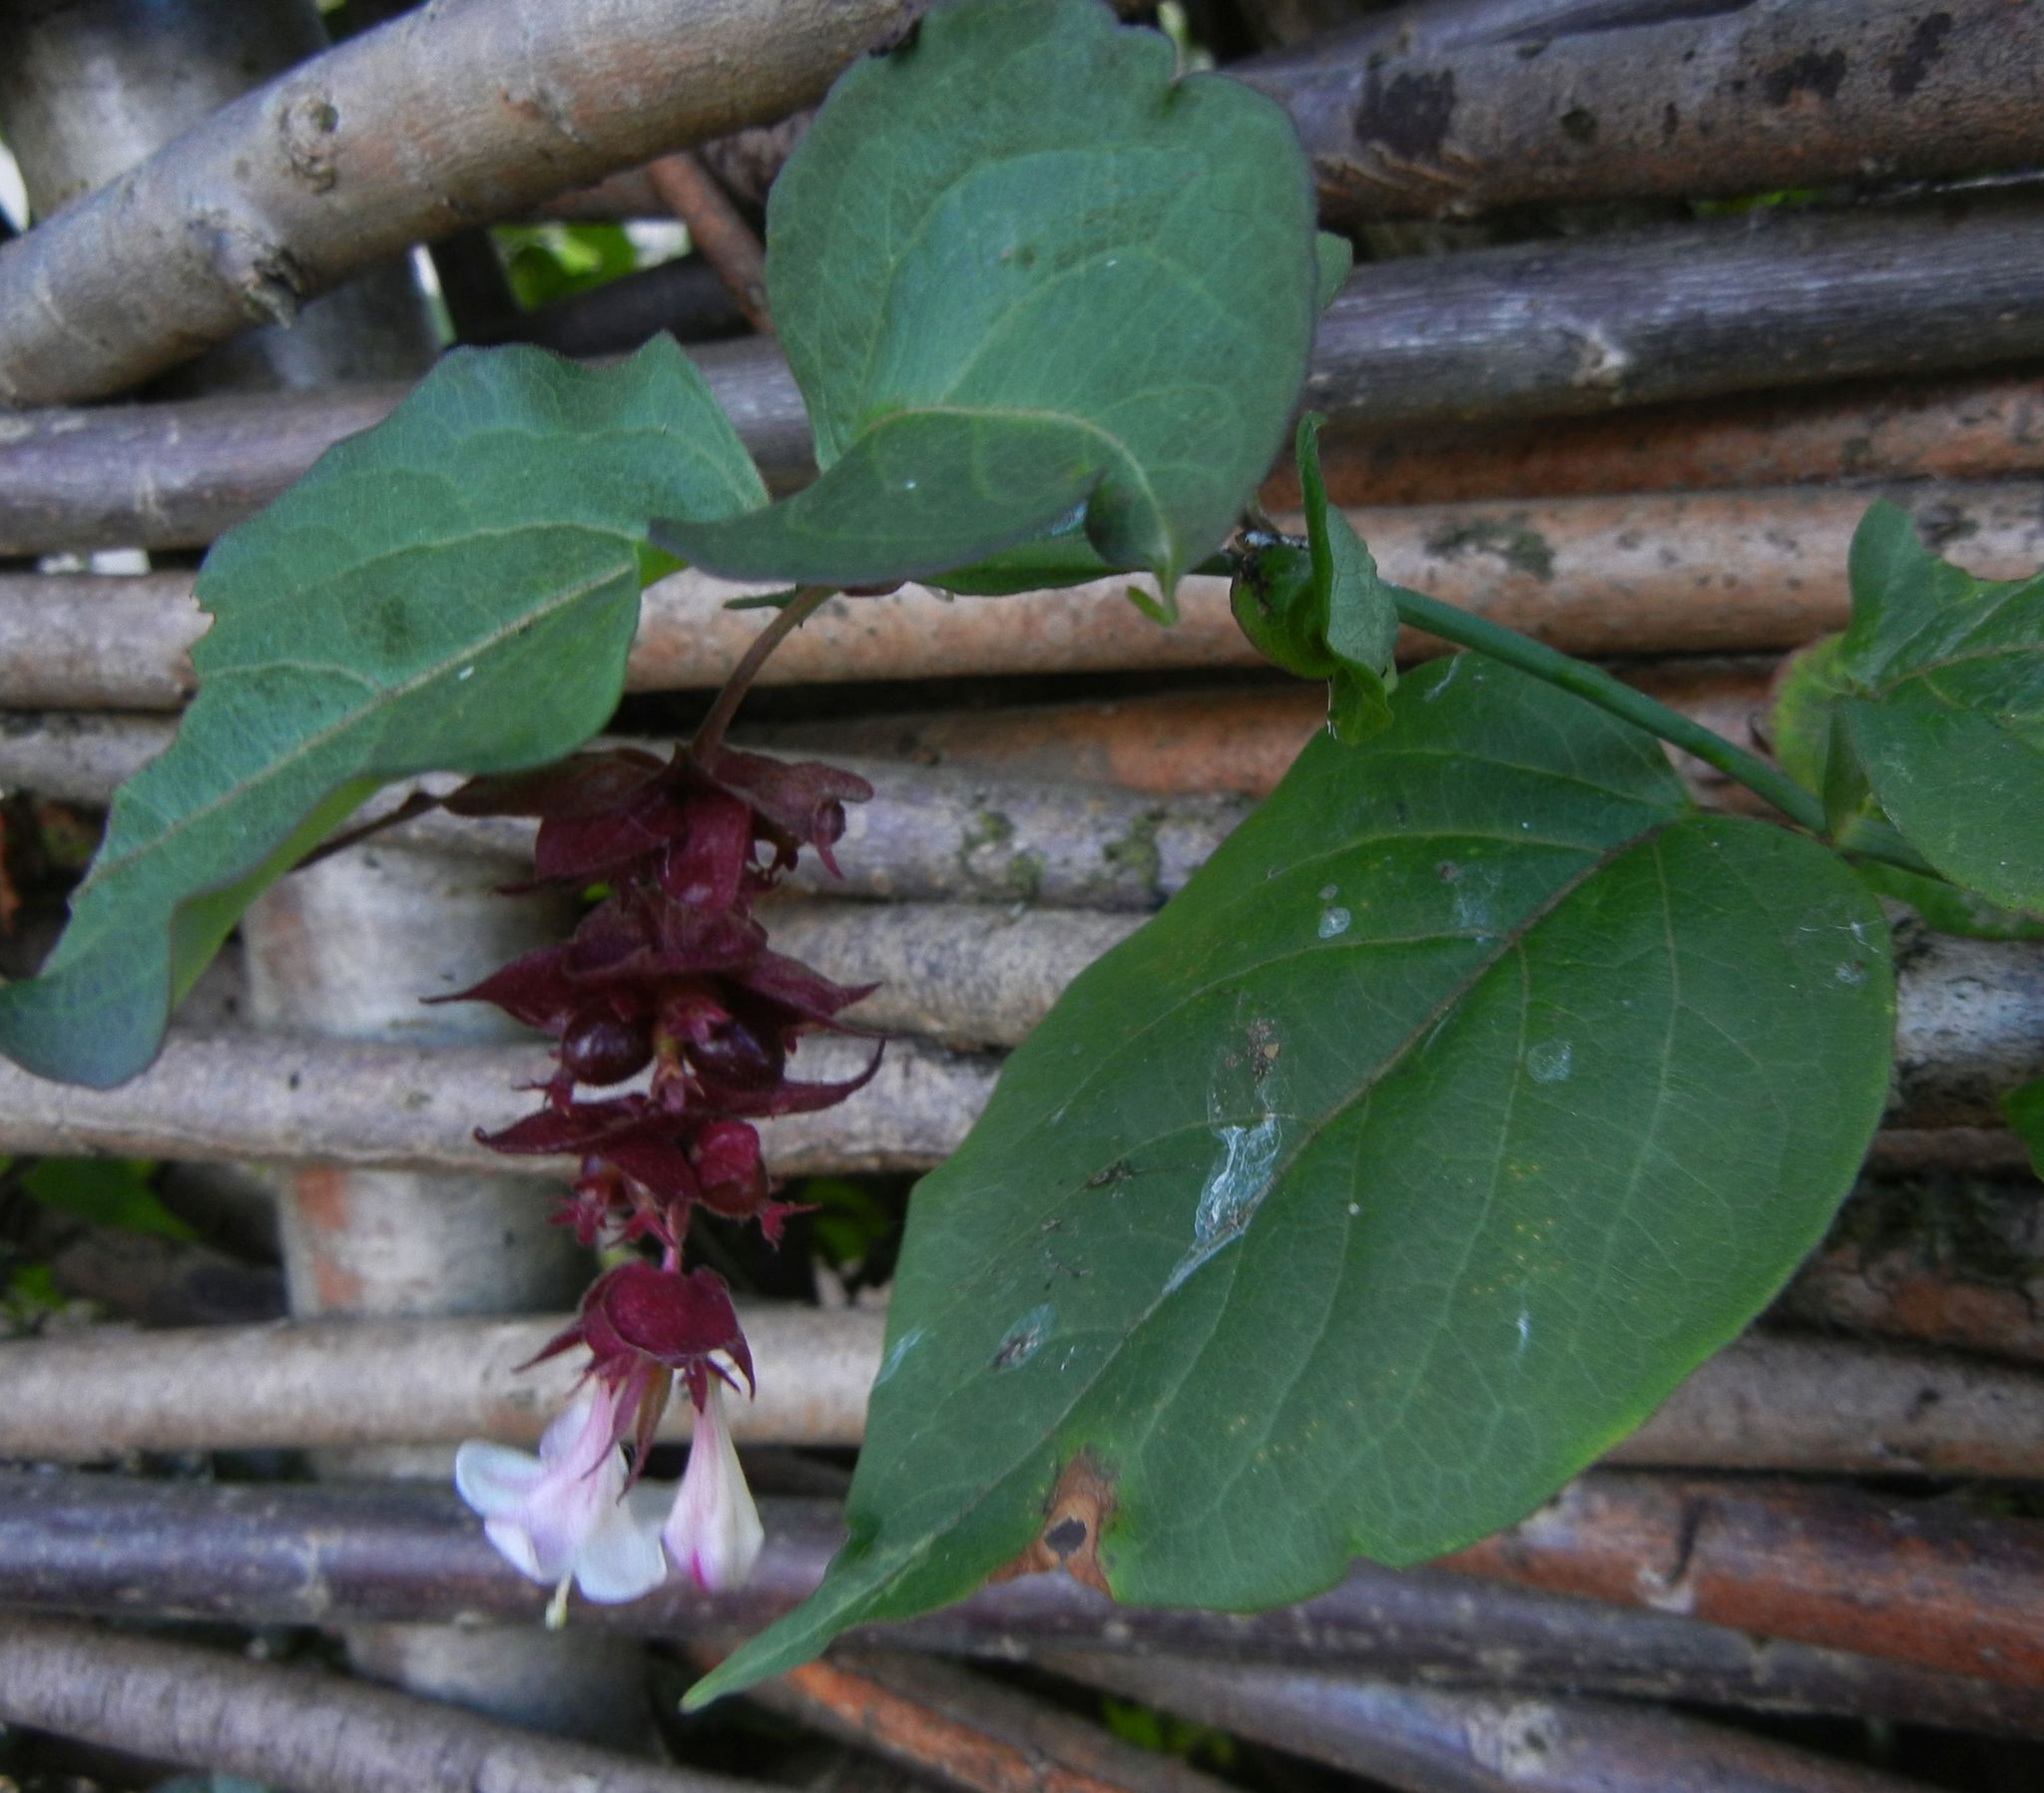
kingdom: Plantae
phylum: Tracheophyta
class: Magnoliopsida
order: Dipsacales
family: Caprifoliaceae
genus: Leycesteria
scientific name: Leycesteria formosa
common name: Himalayan honeysuckle
